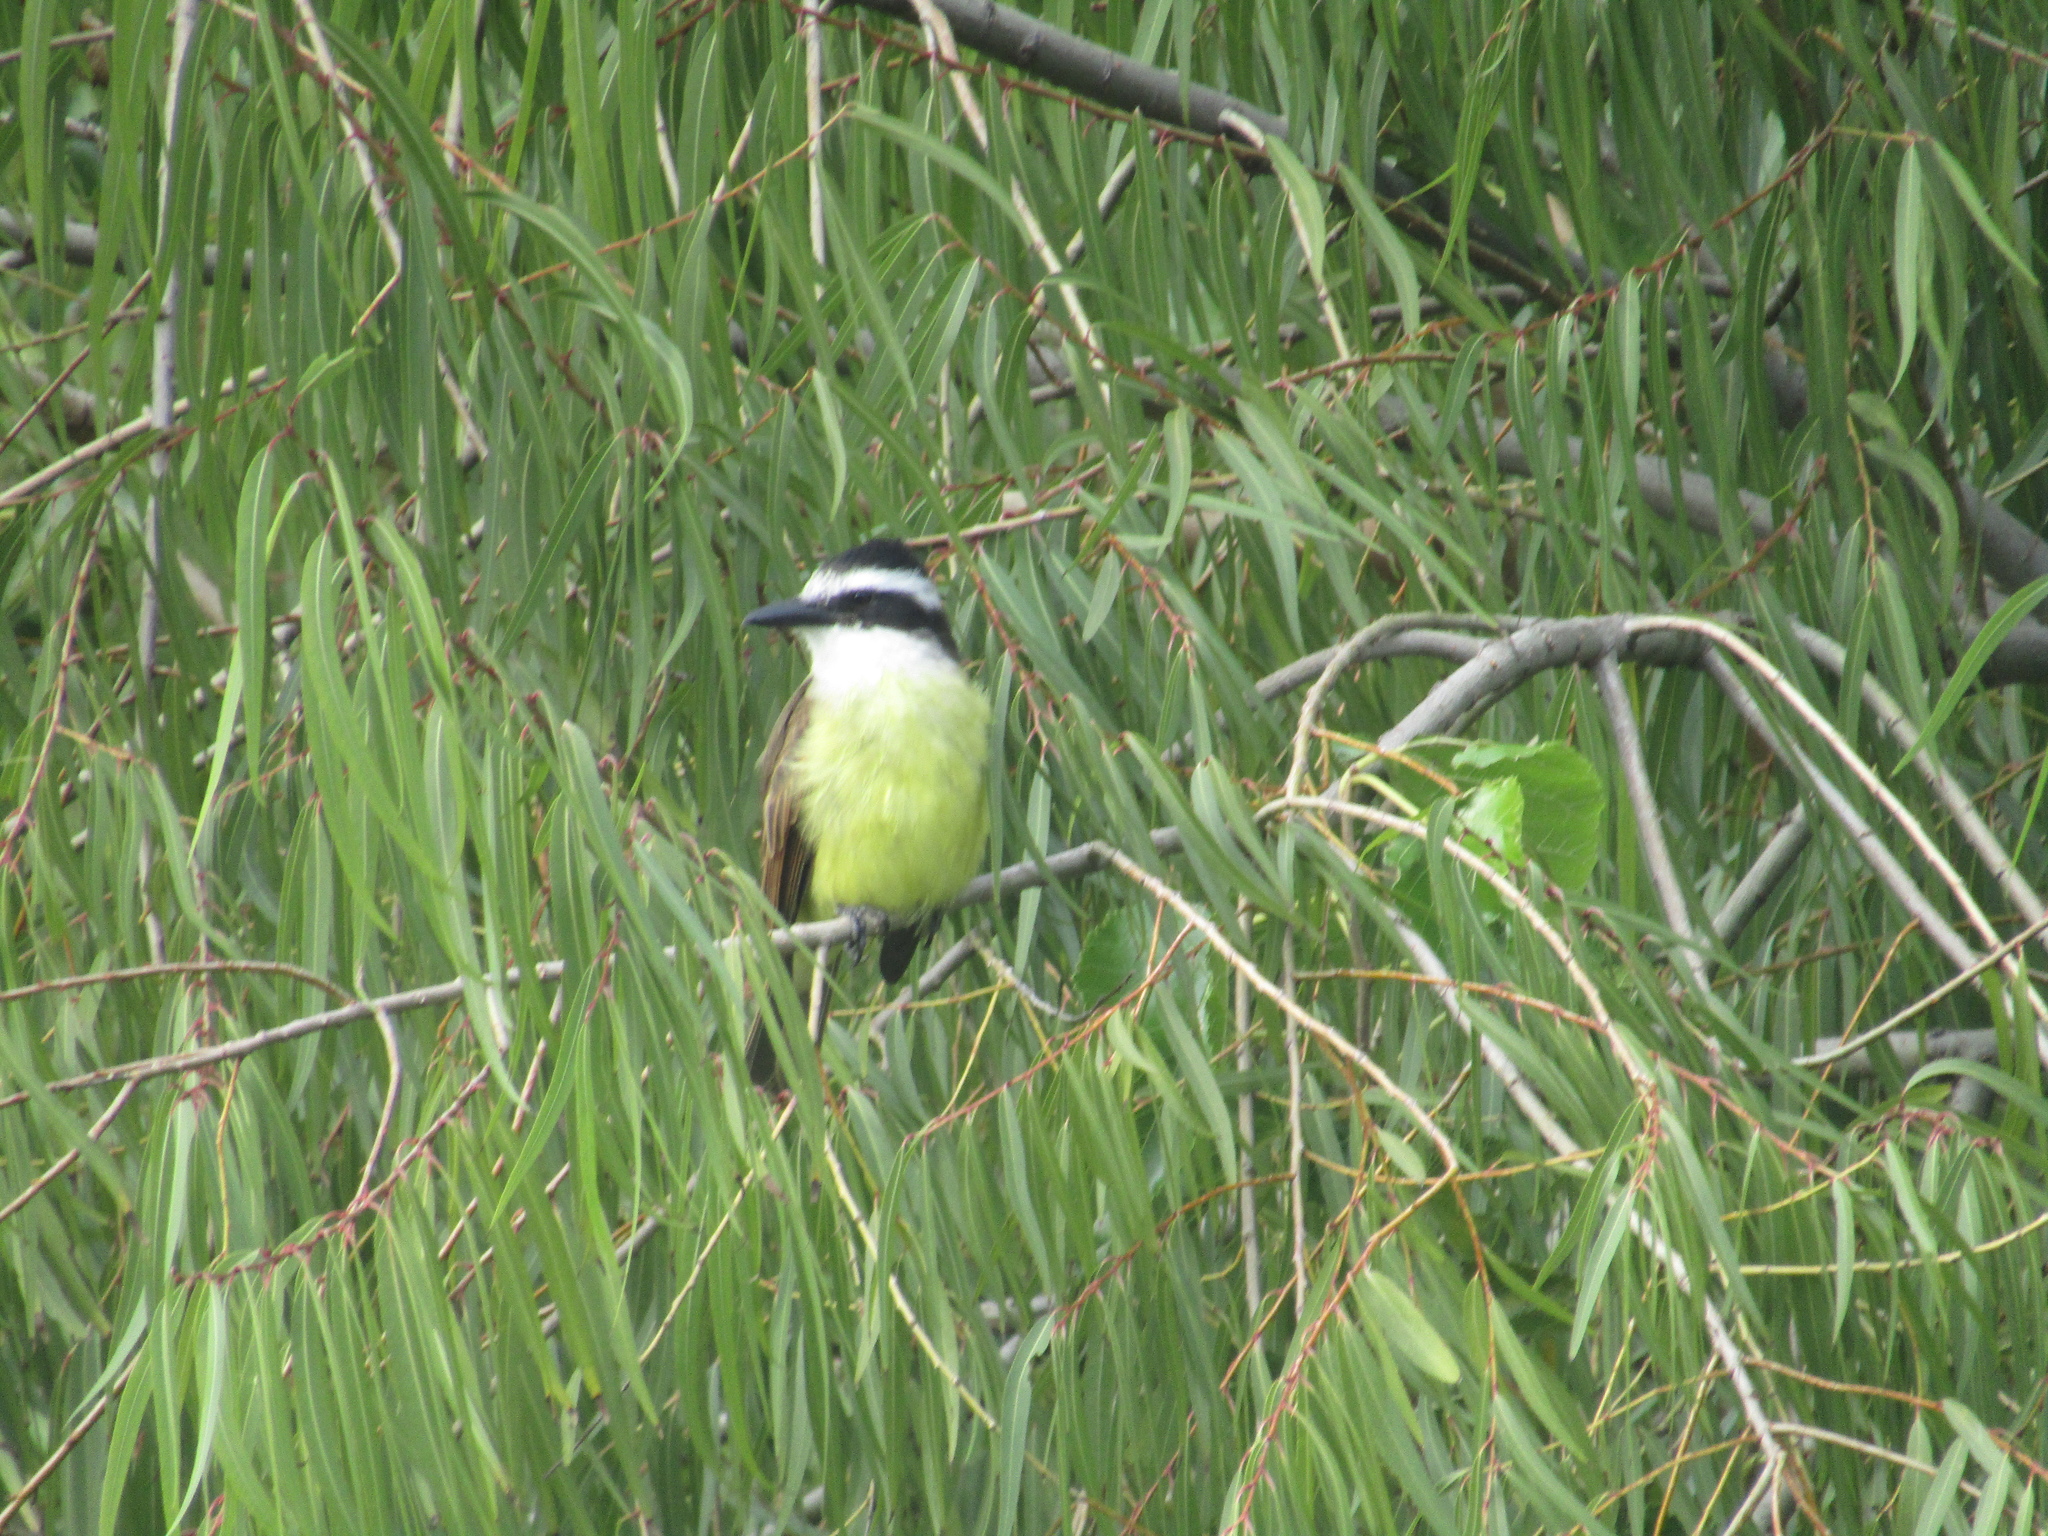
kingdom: Animalia
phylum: Chordata
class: Aves
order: Passeriformes
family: Tyrannidae
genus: Pitangus
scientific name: Pitangus sulphuratus
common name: Great kiskadee
